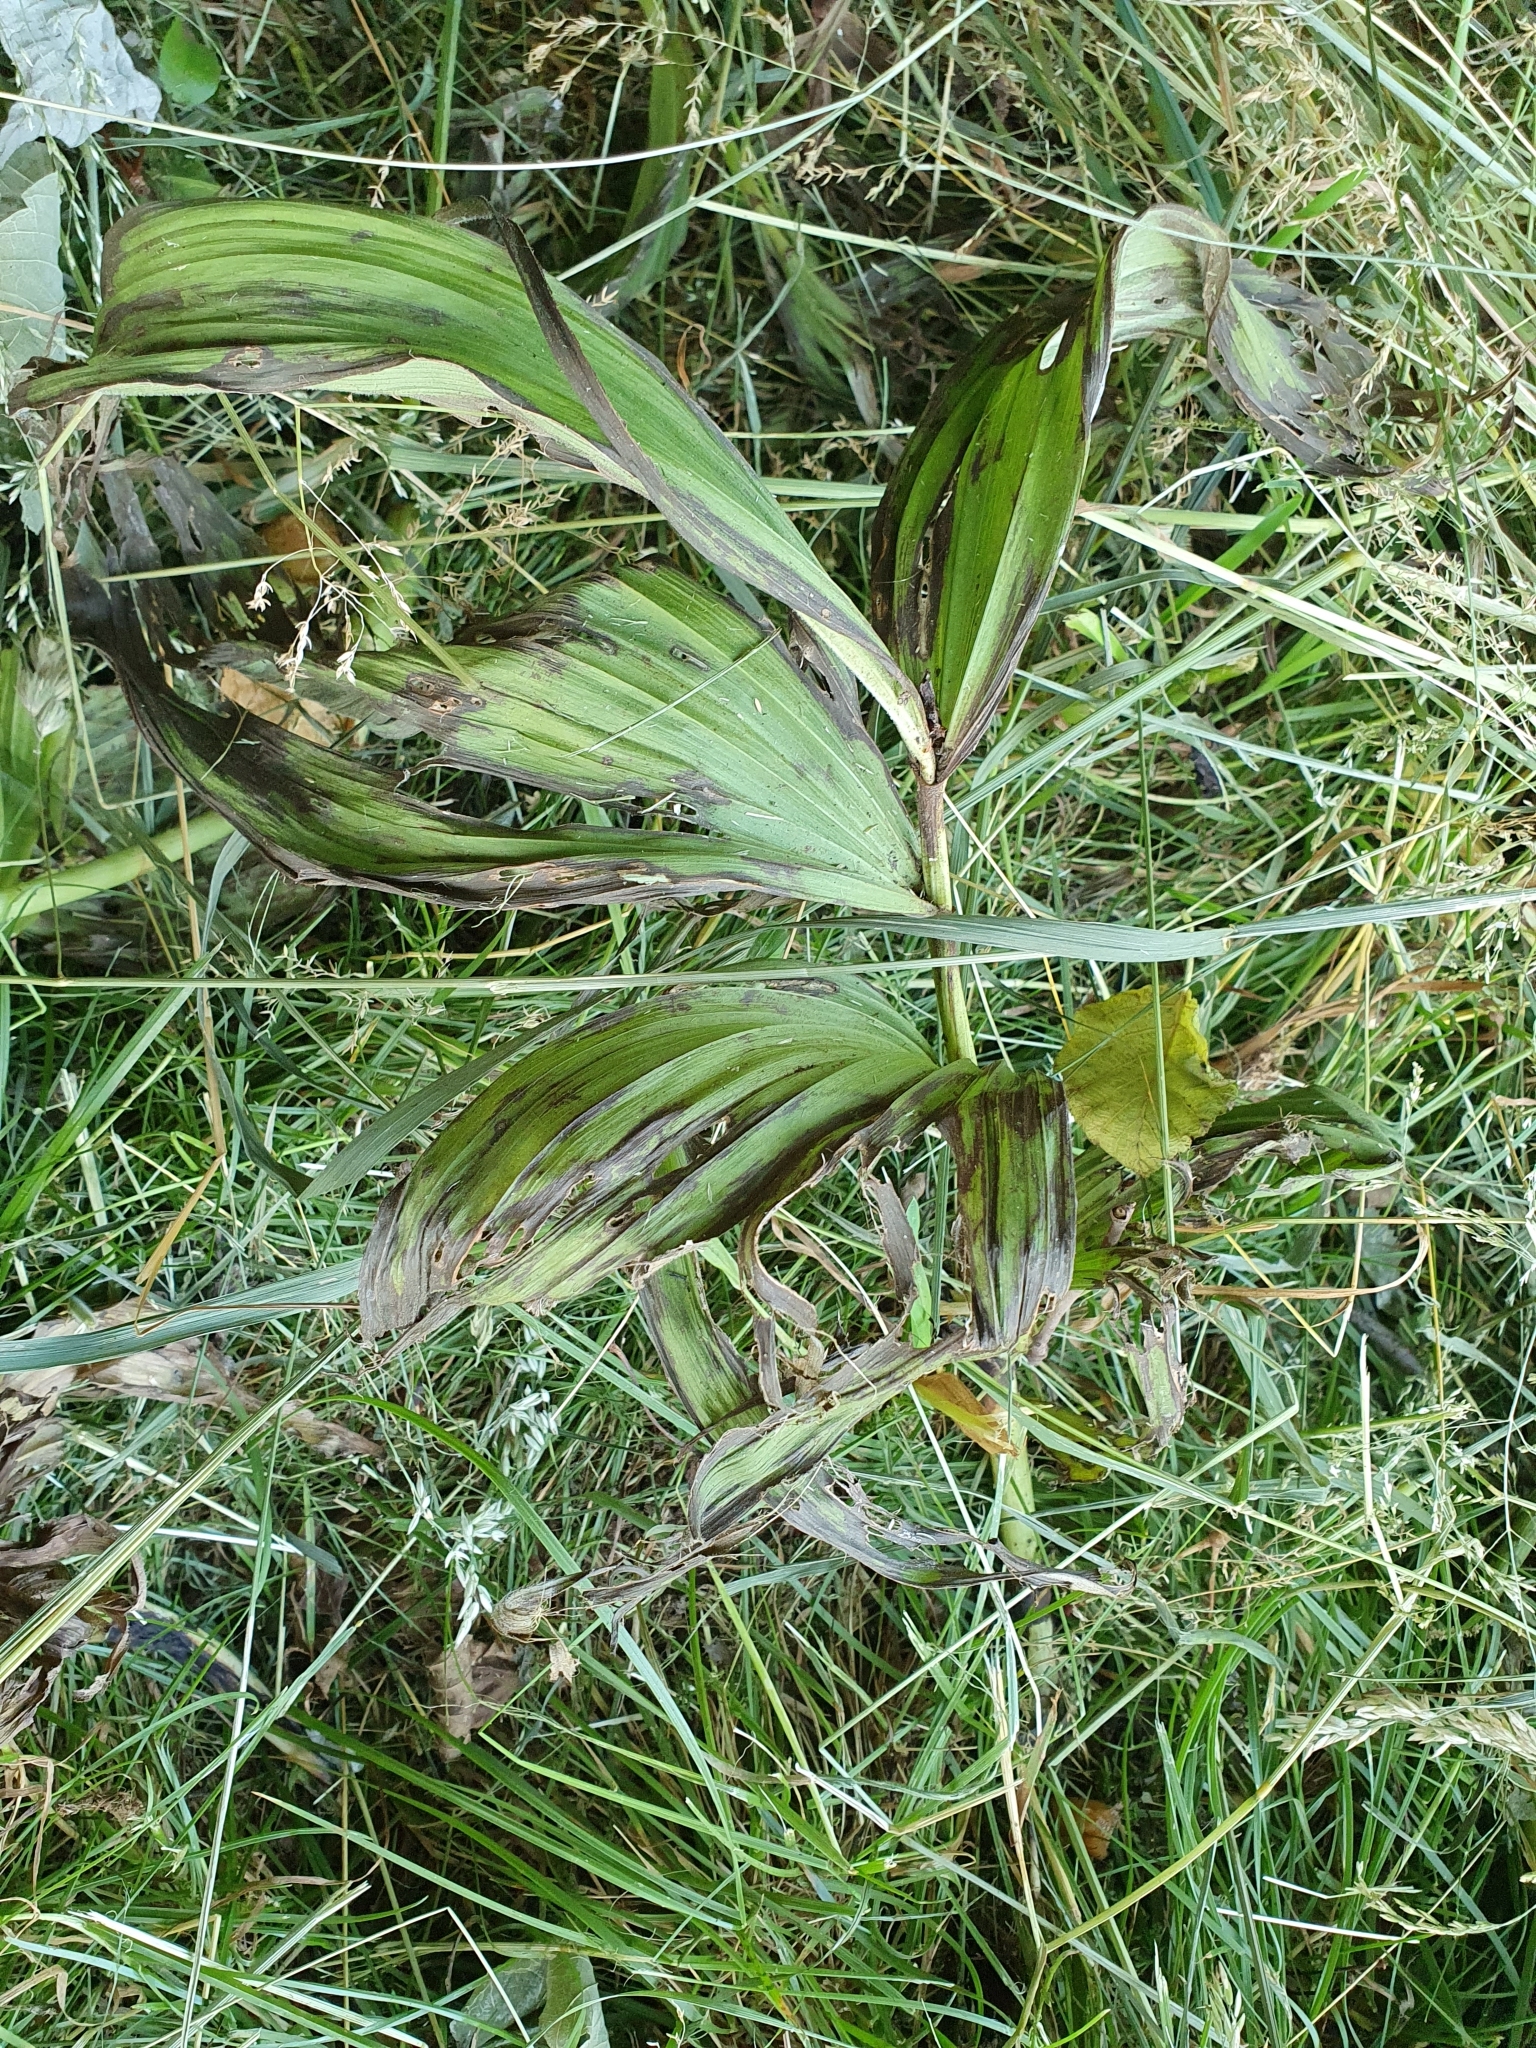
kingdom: Plantae
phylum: Tracheophyta
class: Liliopsida
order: Liliales
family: Melanthiaceae
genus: Veratrum
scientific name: Veratrum lobelianum
